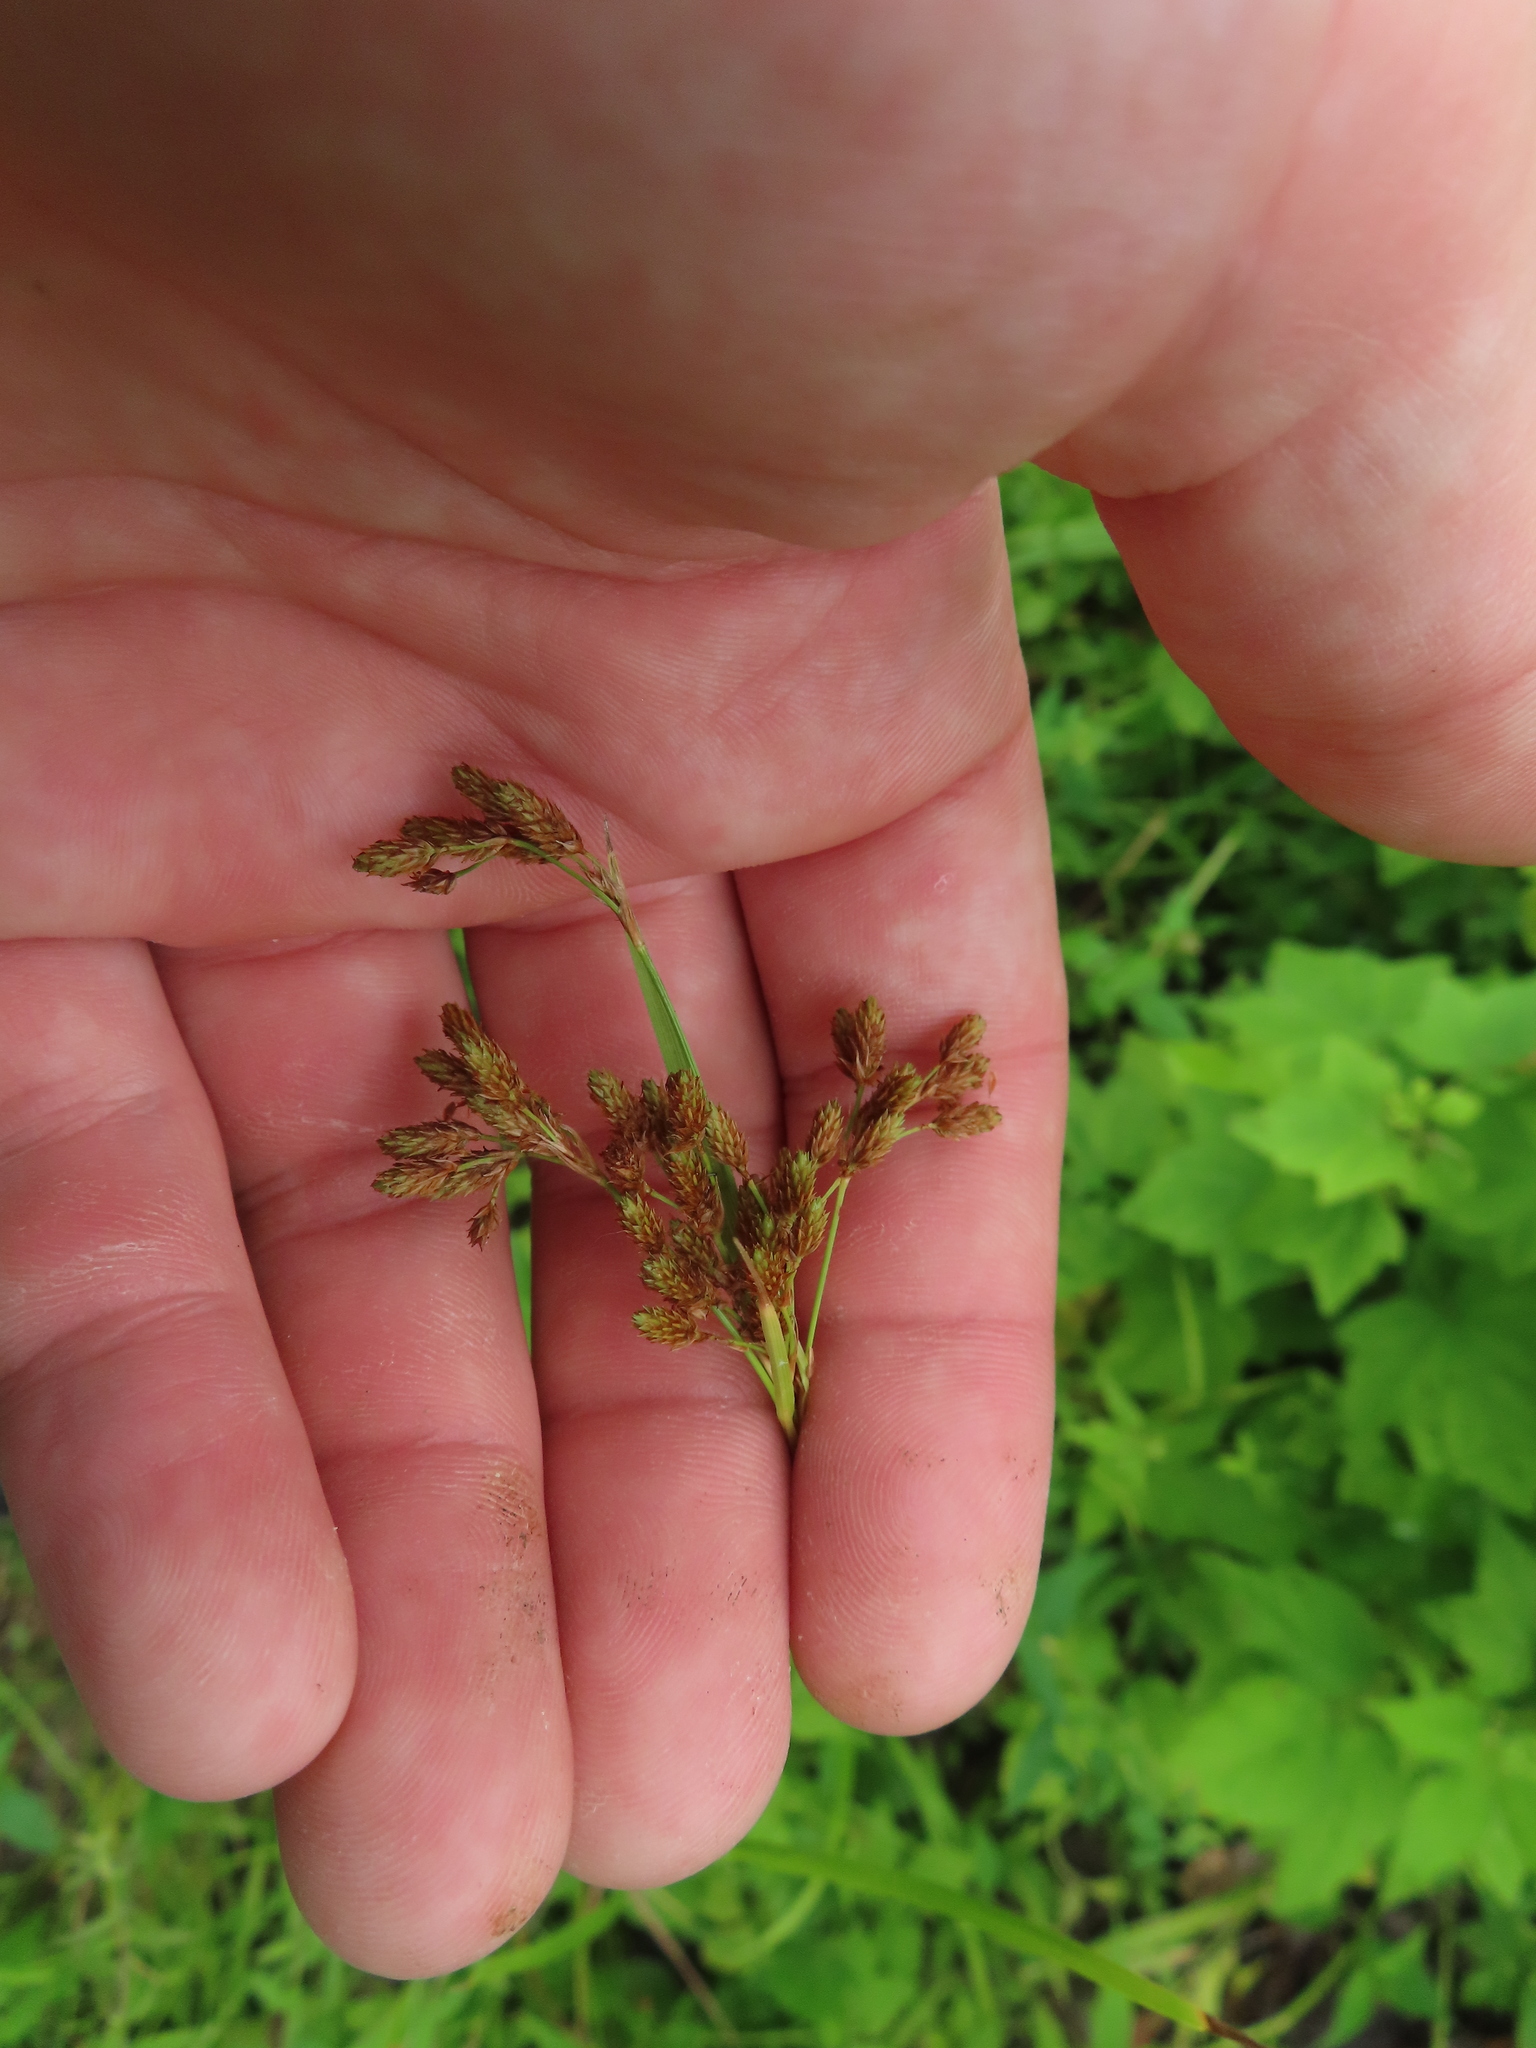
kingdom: Plantae
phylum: Tracheophyta
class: Liliopsida
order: Poales
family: Cyperaceae
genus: Scirpus
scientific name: Scirpus pendulus
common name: Nodding bulrush
